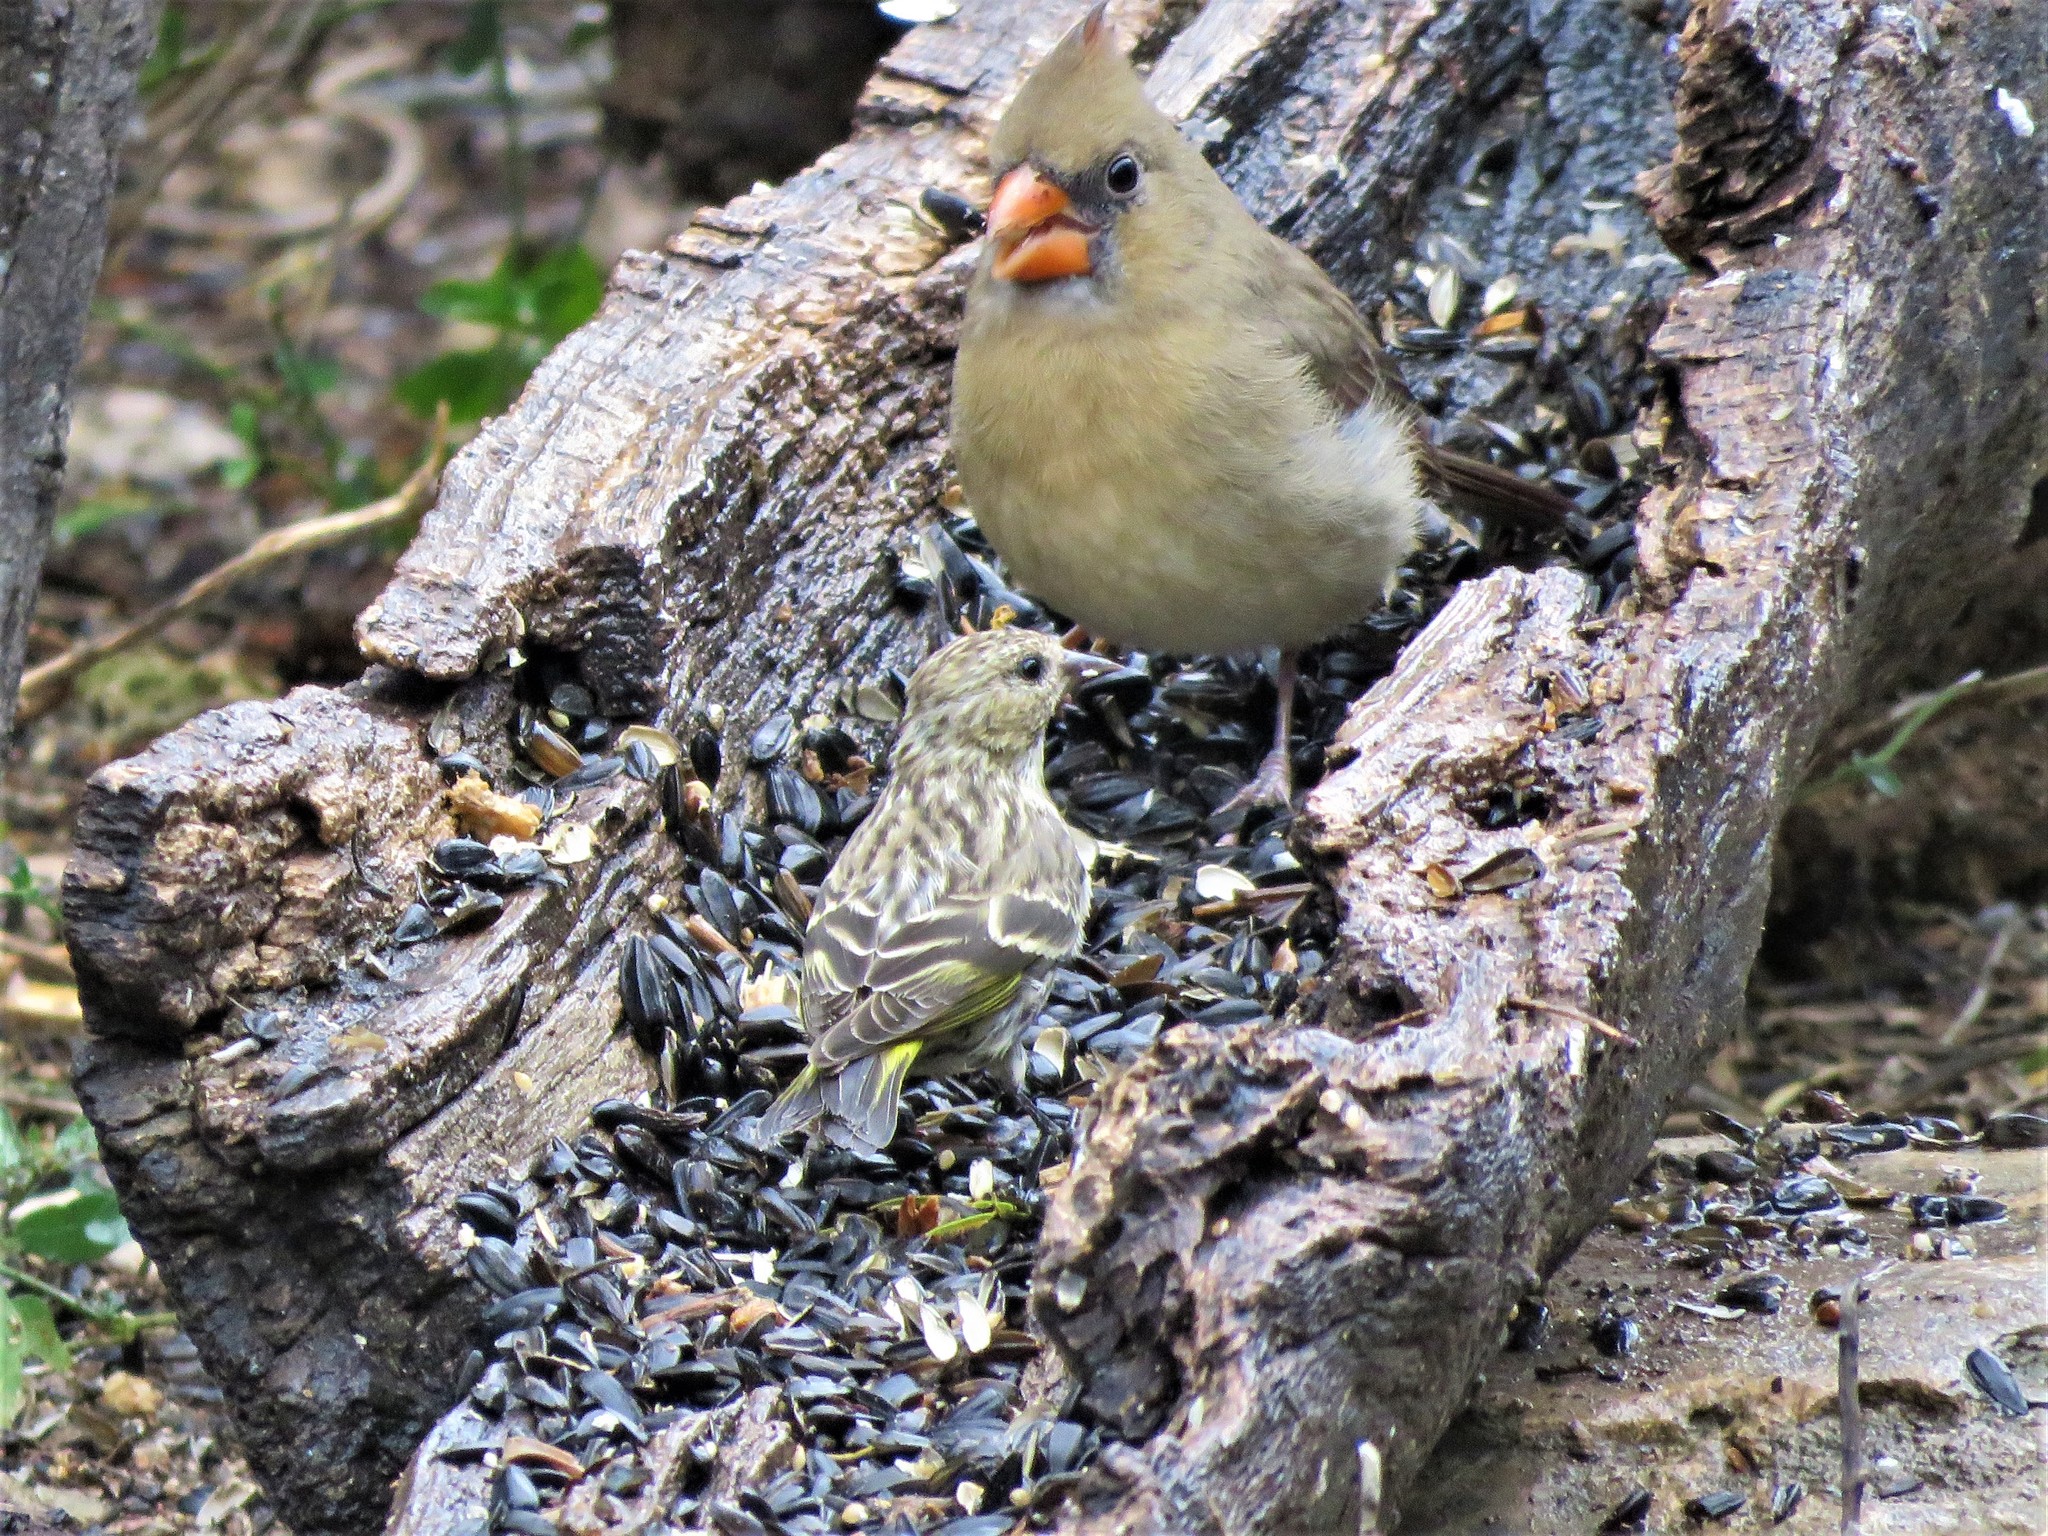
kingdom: Animalia
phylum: Chordata
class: Aves
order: Passeriformes
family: Fringillidae
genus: Spinus
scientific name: Spinus pinus
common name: Pine siskin
